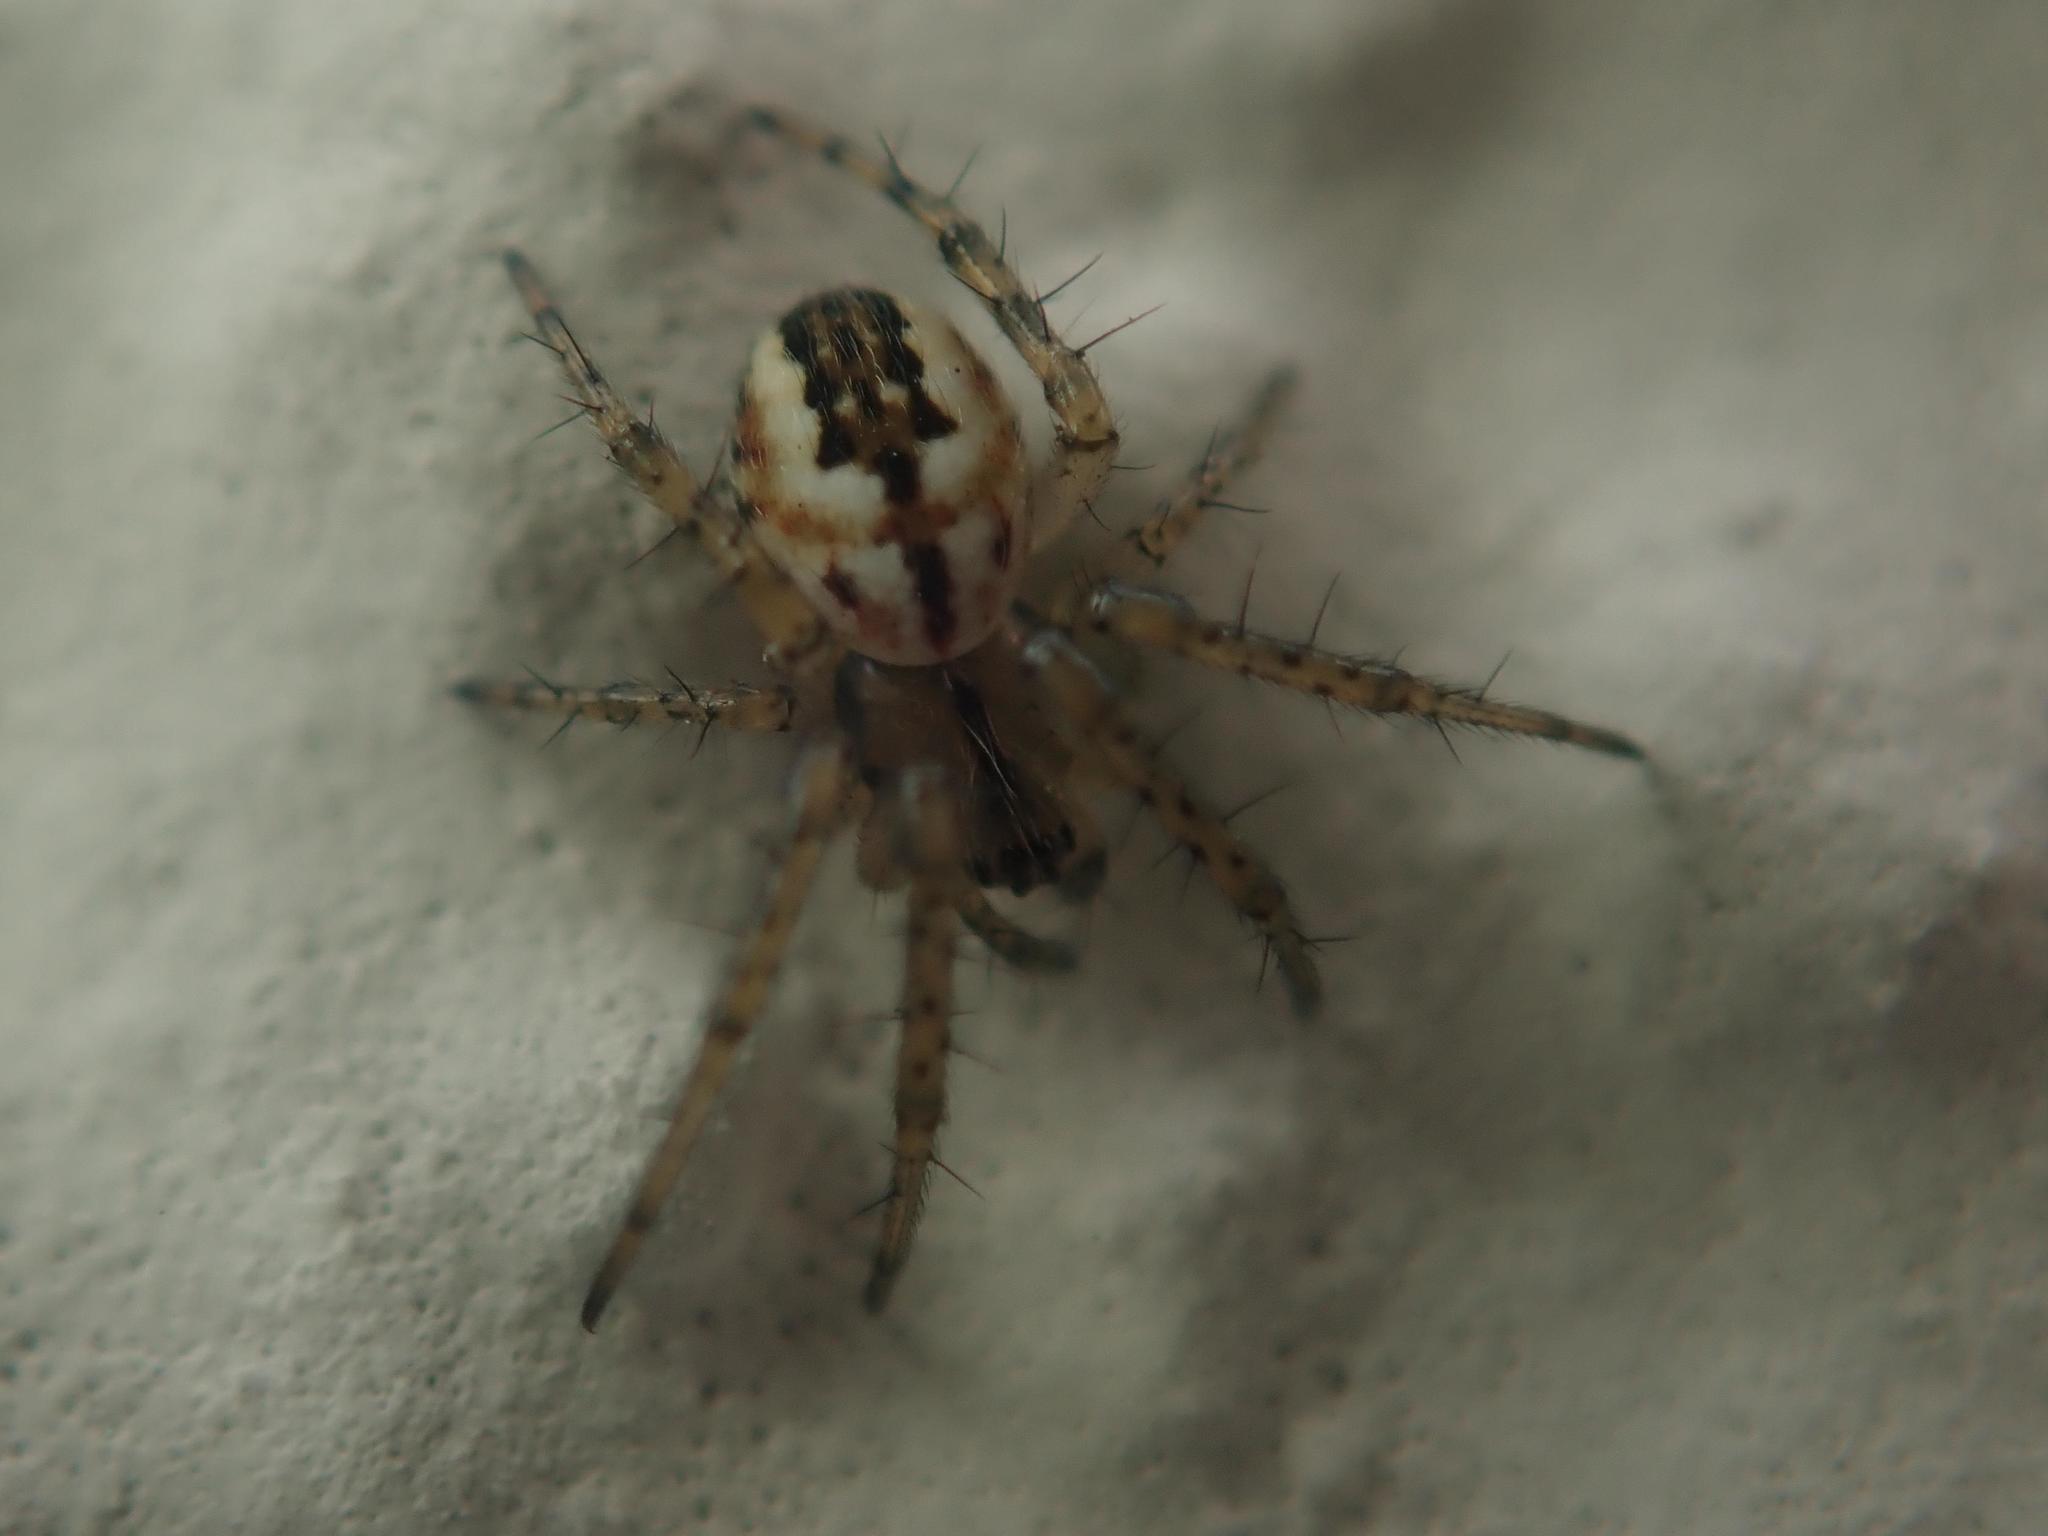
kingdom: Animalia
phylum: Arthropoda
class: Arachnida
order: Araneae
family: Araneidae
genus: Mangora
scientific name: Mangora acalypha
